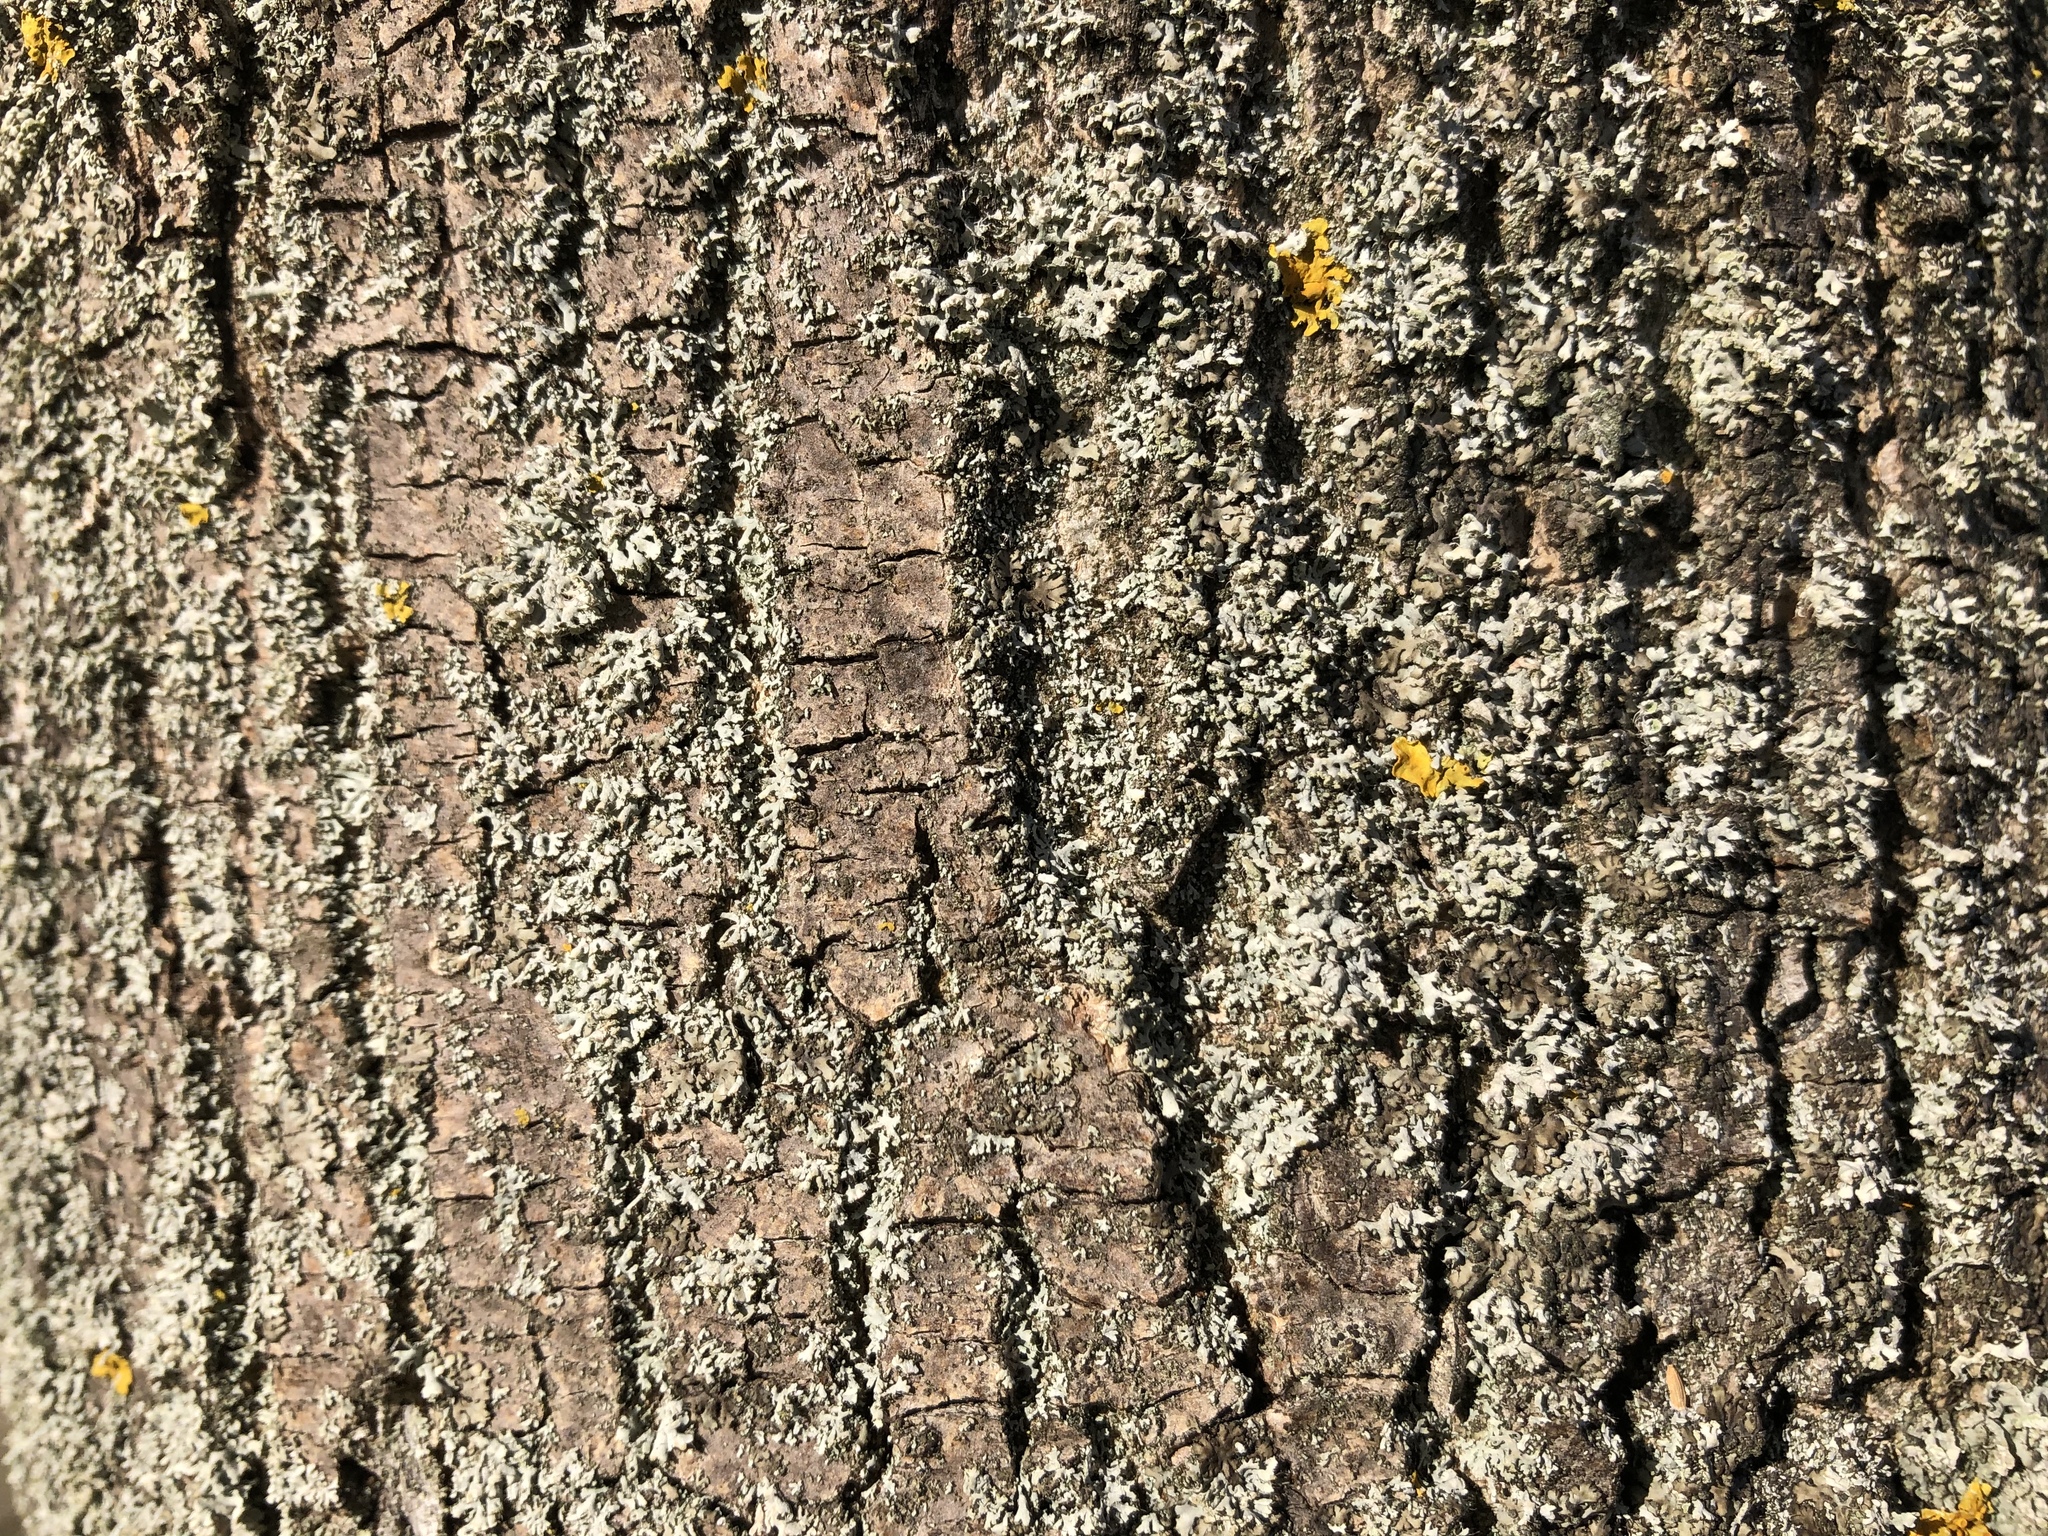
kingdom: Fungi
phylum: Ascomycota
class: Lecanoromycetes
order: Caliciales
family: Physciaceae
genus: Physcia
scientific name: Physcia adscendens
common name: Hooded rosette lichen
